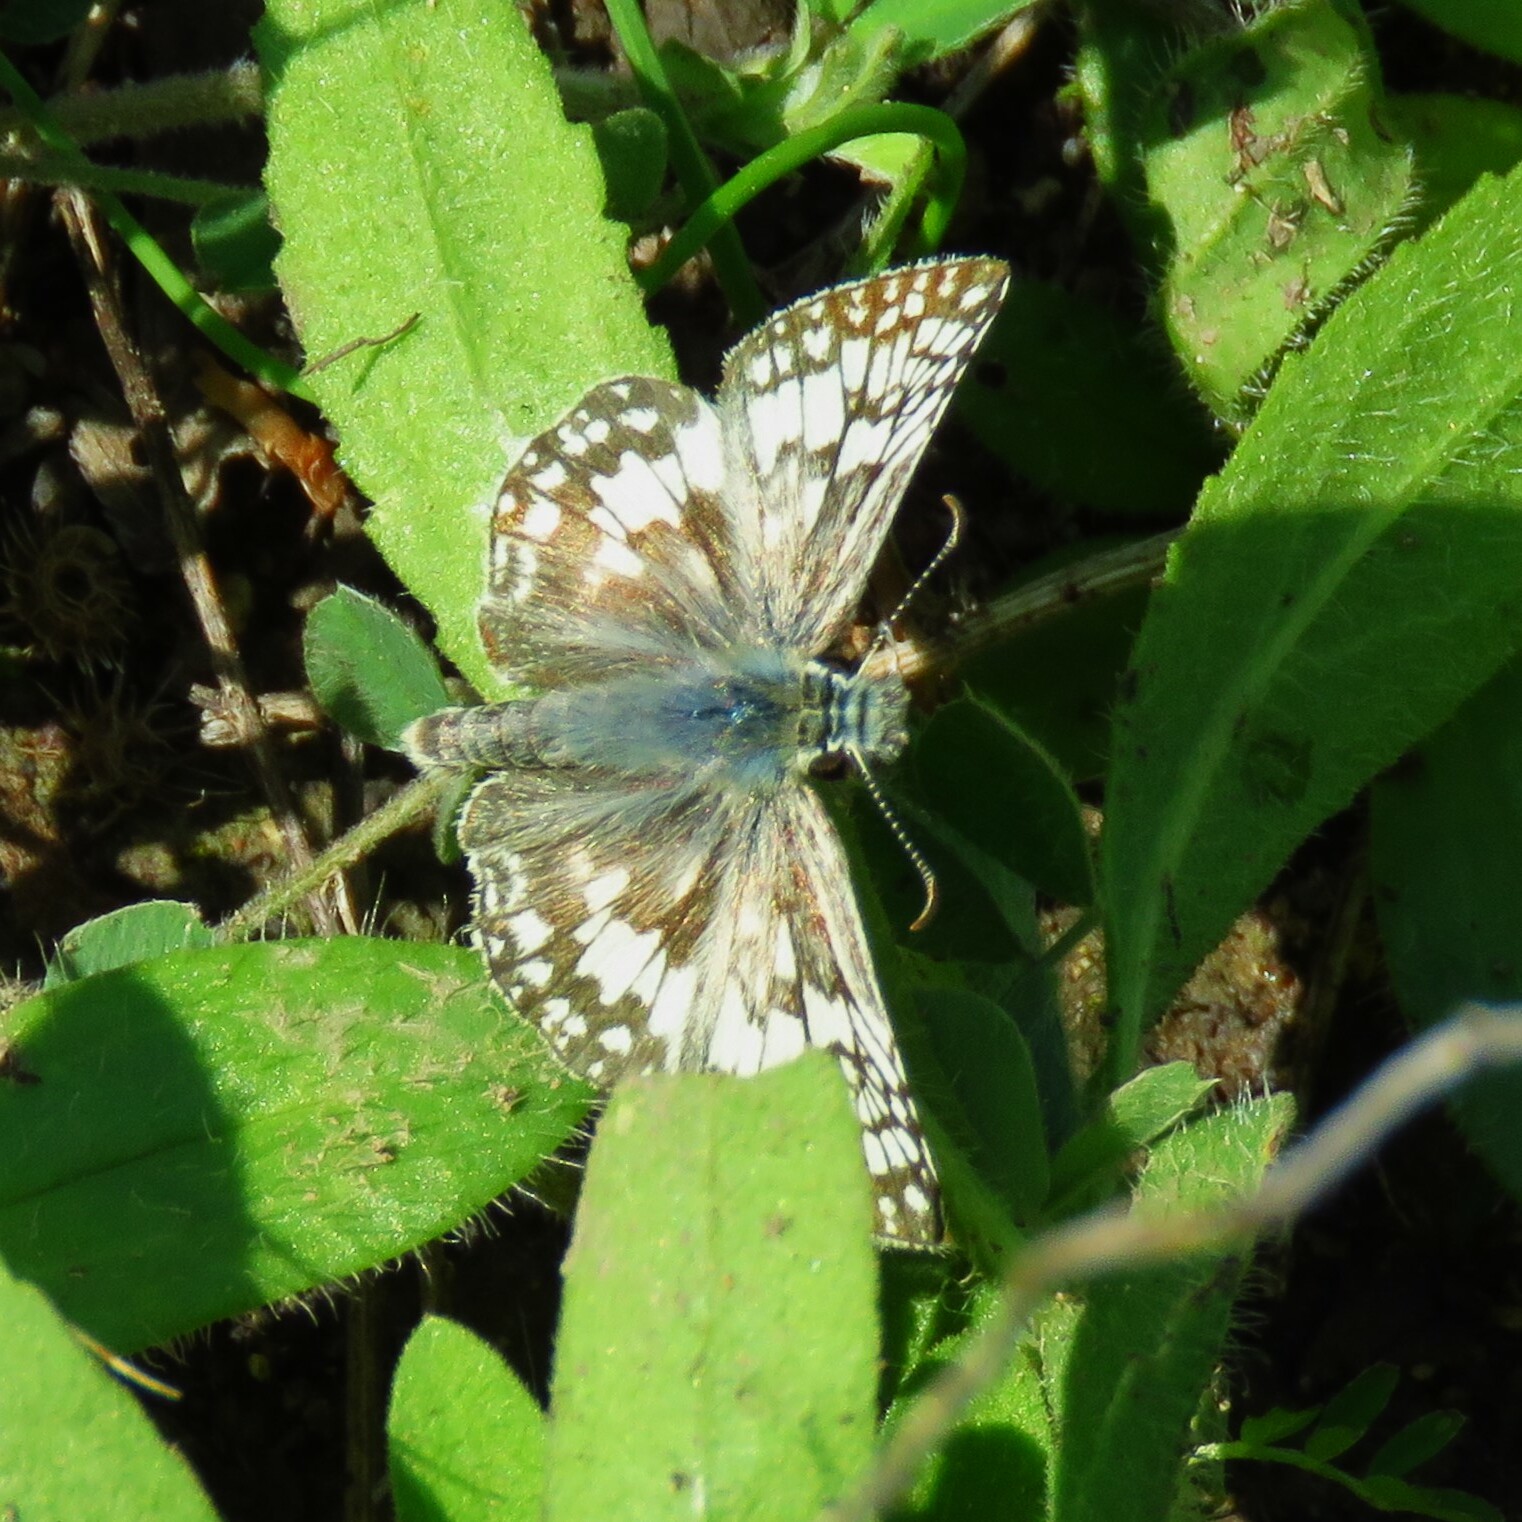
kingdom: Animalia
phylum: Arthropoda
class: Insecta
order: Lepidoptera
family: Hesperiidae
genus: Burnsius
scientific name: Burnsius communis
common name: Common checkered-skipper
